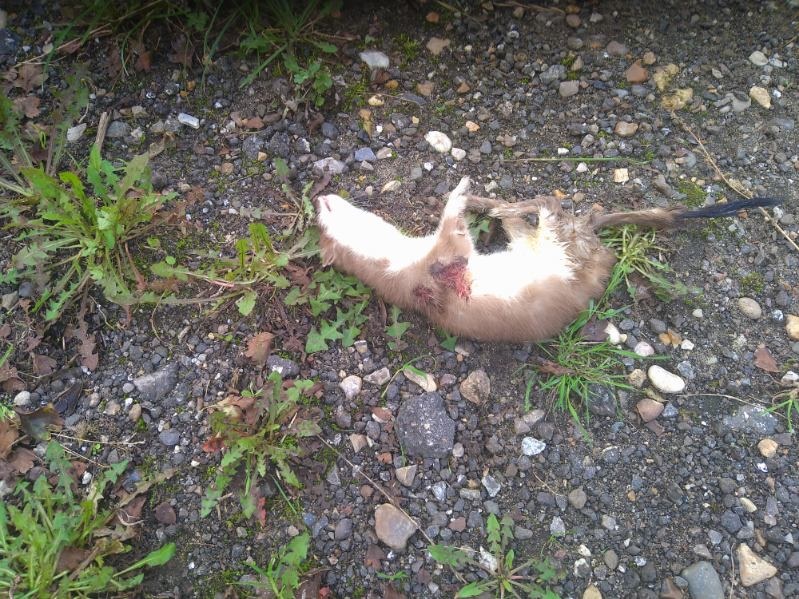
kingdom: Animalia
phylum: Chordata
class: Mammalia
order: Carnivora
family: Mustelidae
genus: Mustela
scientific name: Mustela erminea
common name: Stoat
